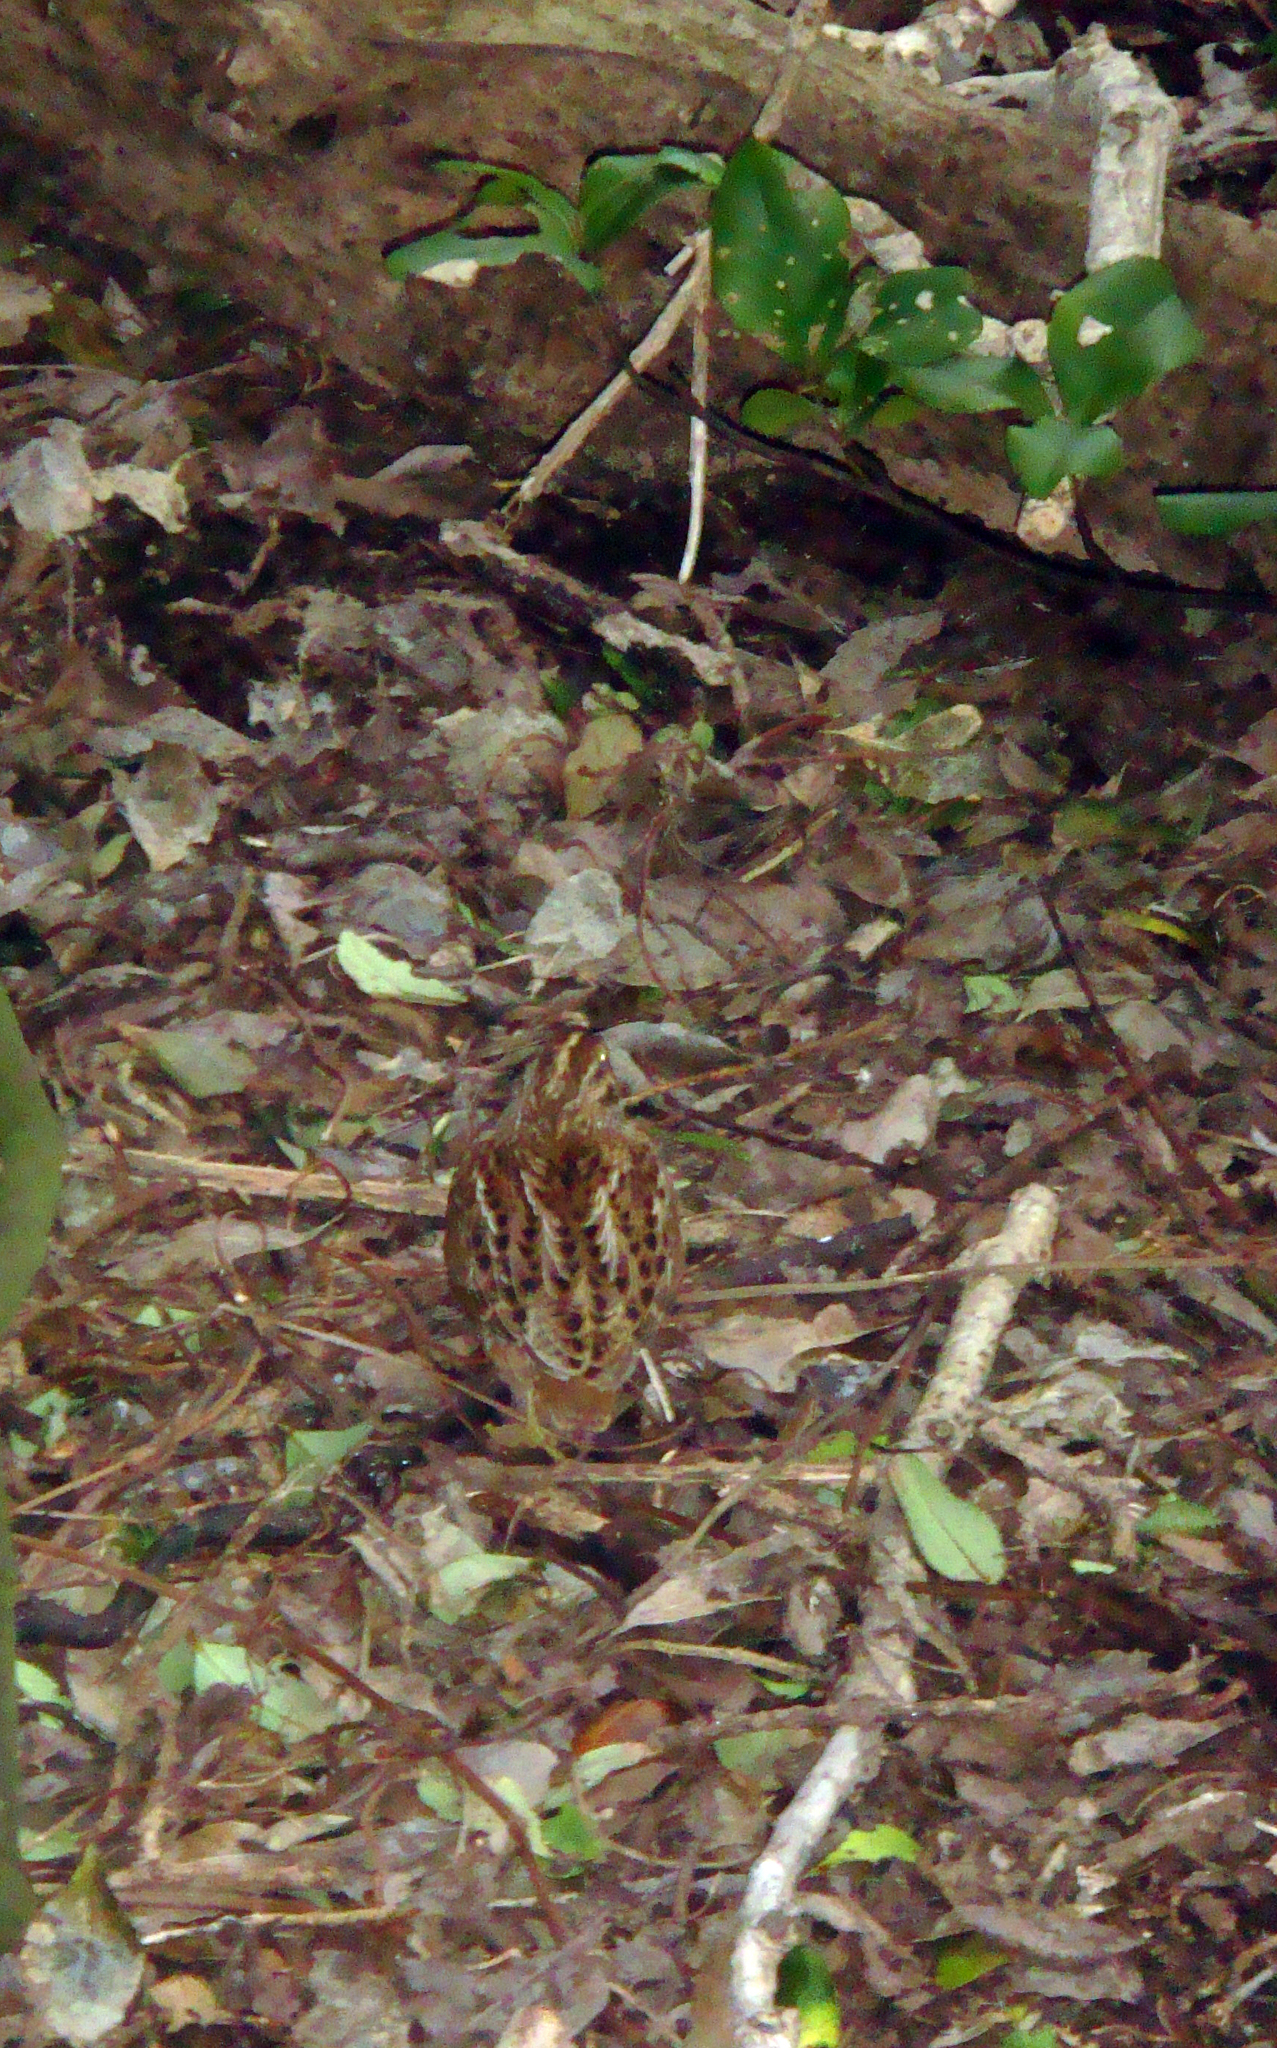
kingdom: Animalia
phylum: Chordata
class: Aves
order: Charadriiformes
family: Scolopacidae
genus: Coenocorypha
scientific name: Coenocorypha pusilla
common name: Chatham snipe
